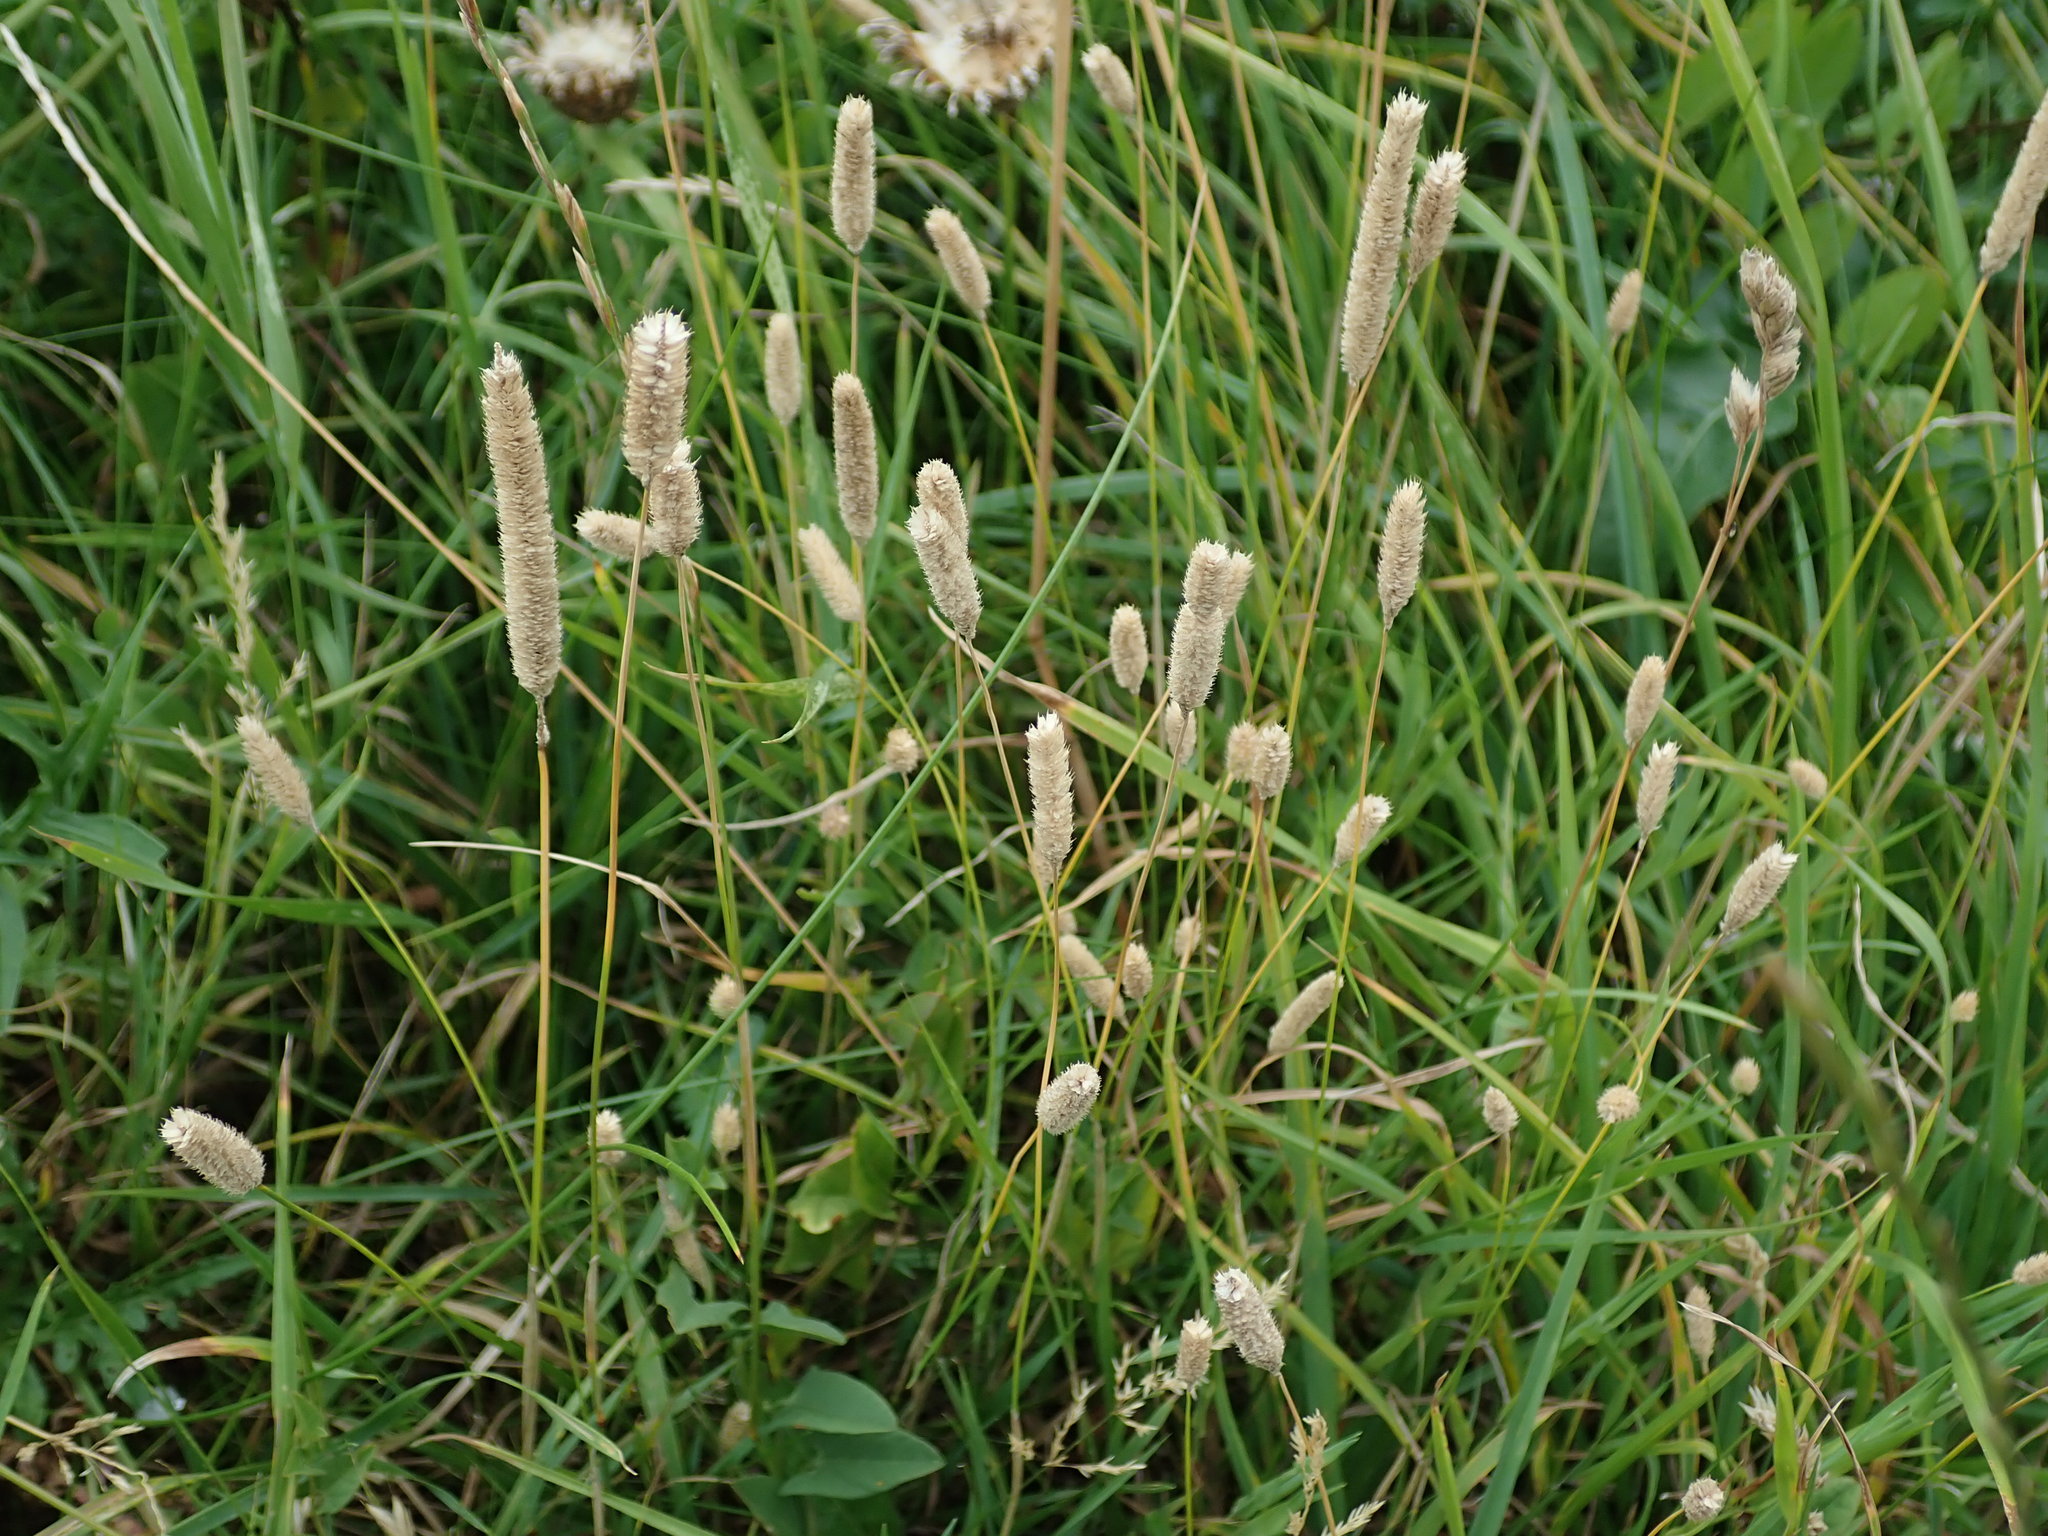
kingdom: Plantae
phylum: Tracheophyta
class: Liliopsida
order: Poales
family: Poaceae
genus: Phleum
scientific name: Phleum bertolonii
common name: Smaller cat's-tail
